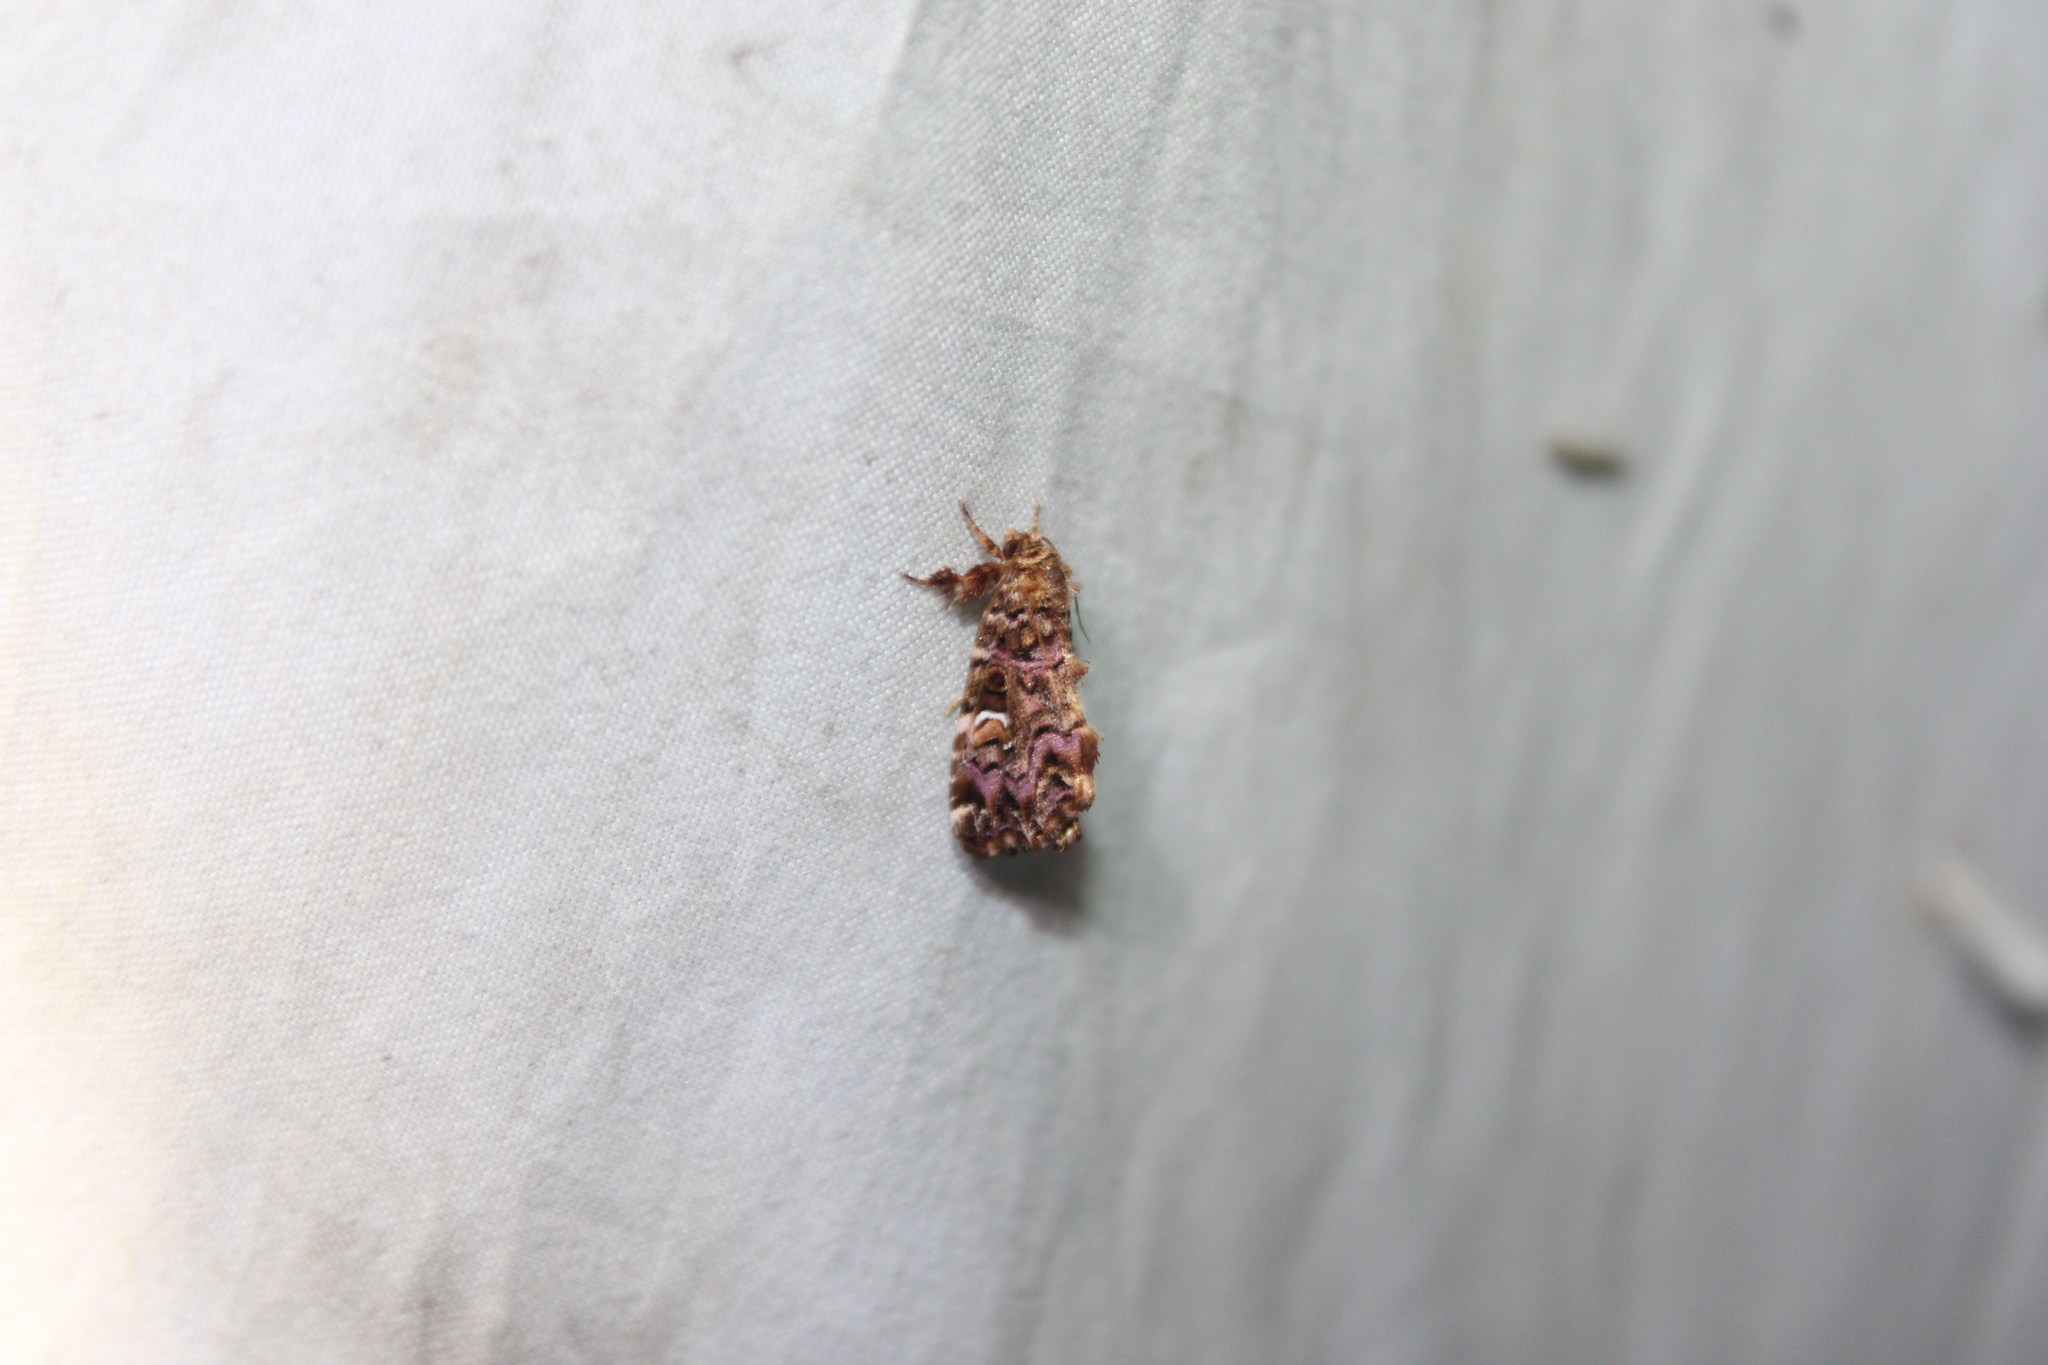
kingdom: Animalia
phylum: Arthropoda
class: Insecta
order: Lepidoptera
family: Noctuidae
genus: Callopistria
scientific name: Callopistria mollissima
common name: Pink-shaded fern moth
